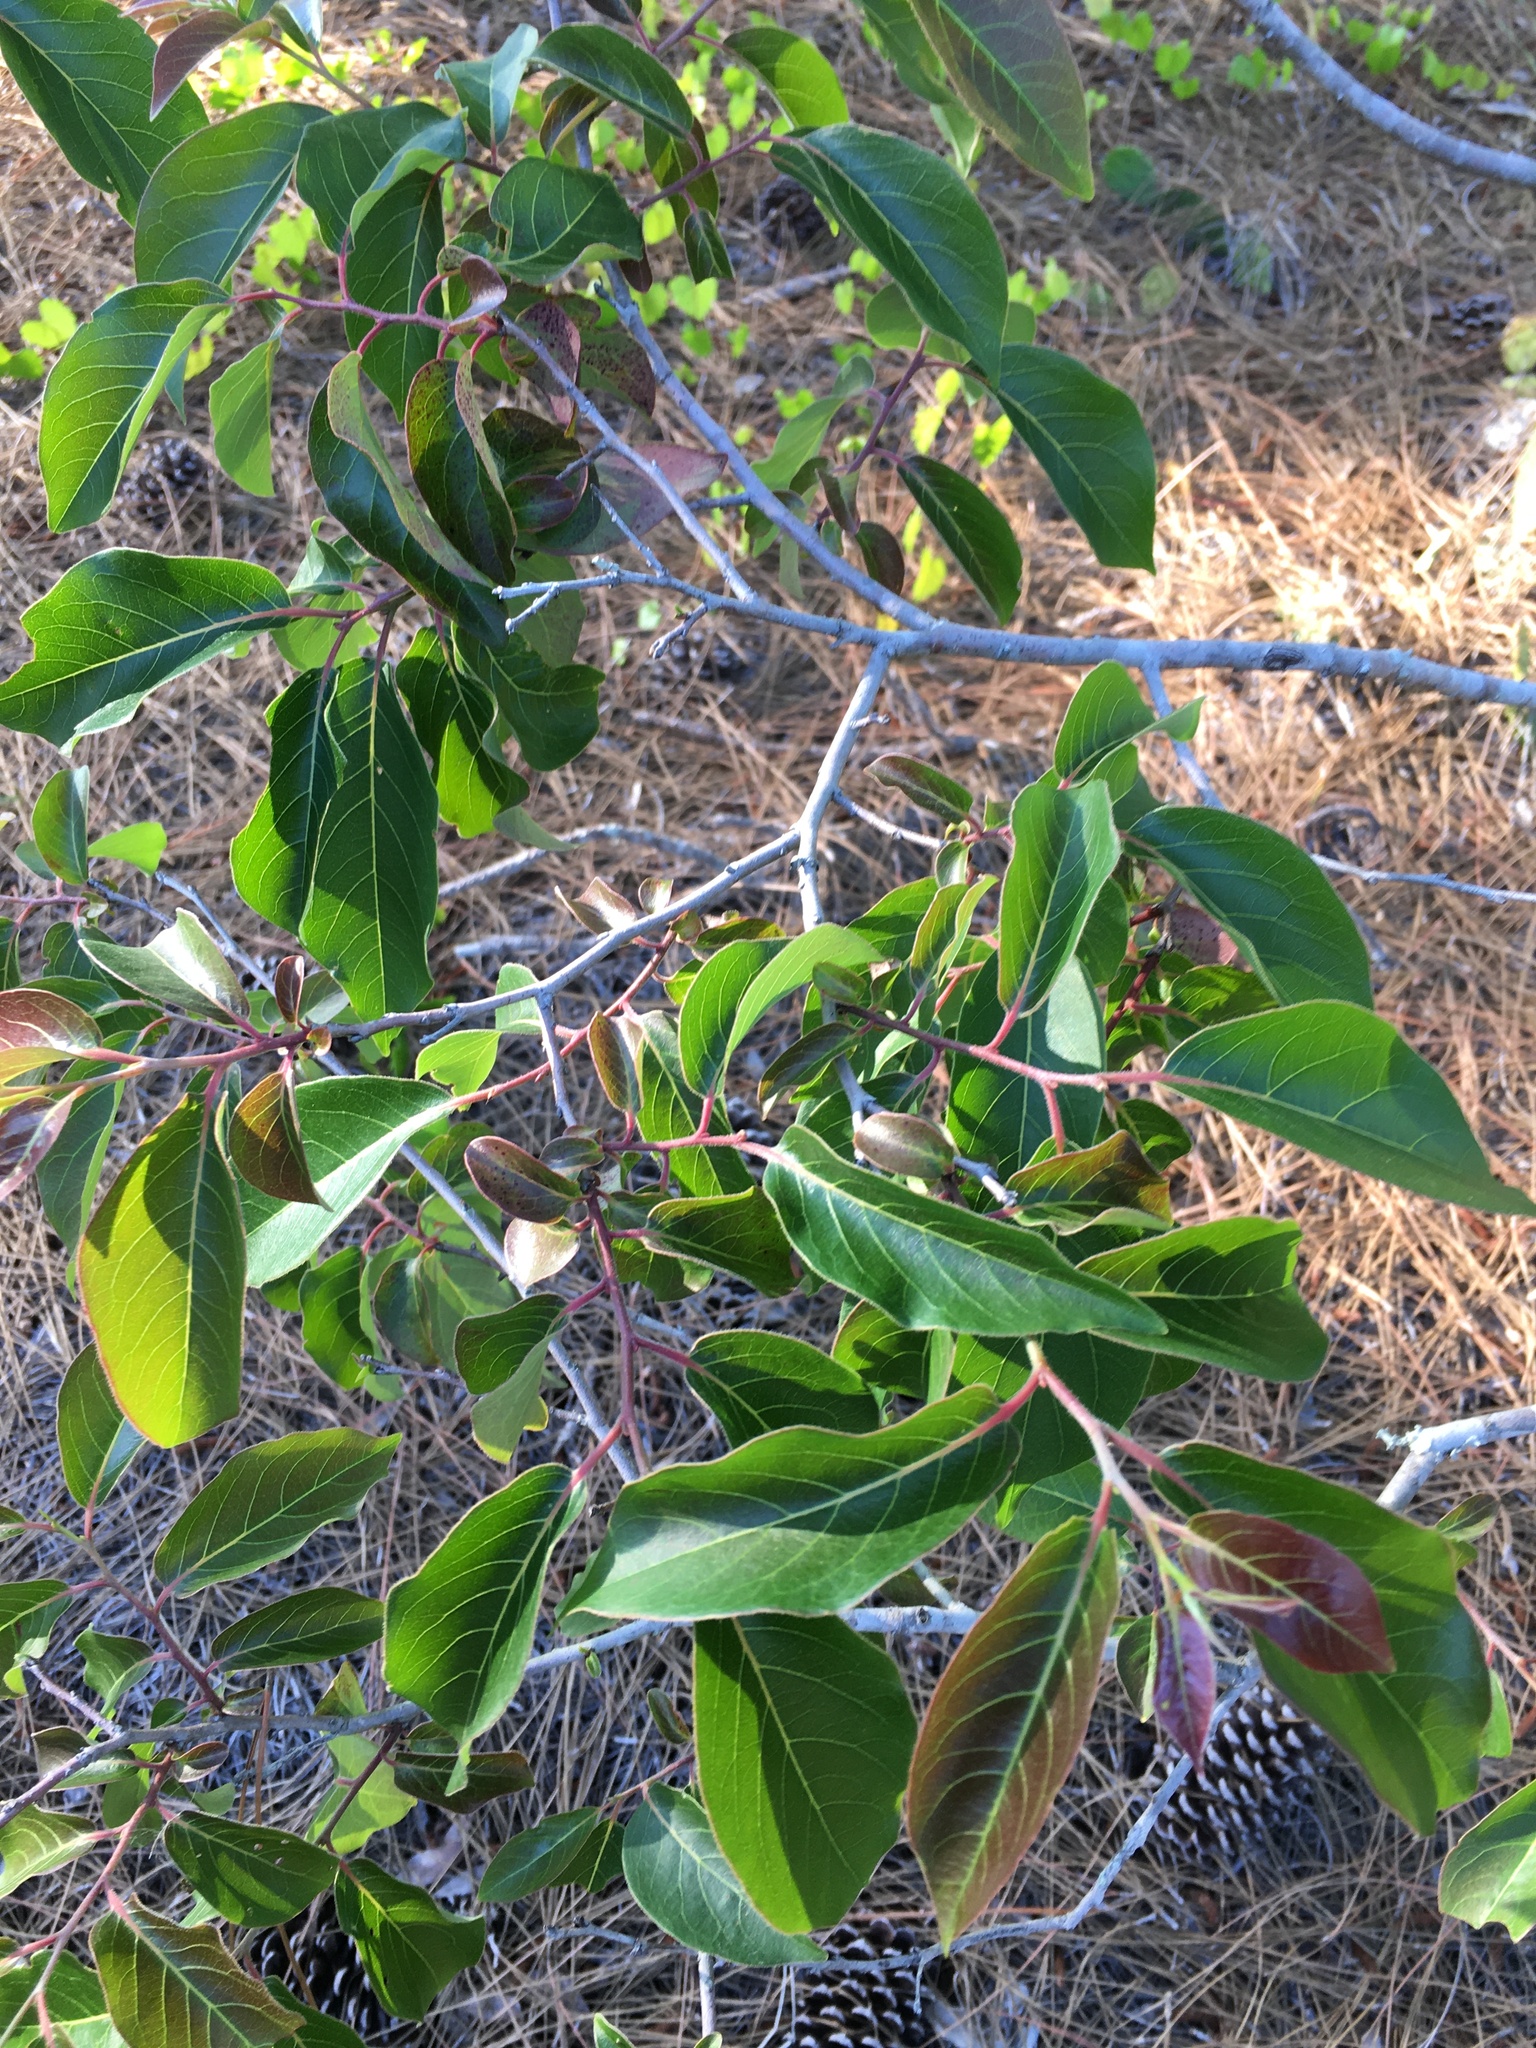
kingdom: Plantae
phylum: Tracheophyta
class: Magnoliopsida
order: Ericales
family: Ebenaceae
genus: Diospyros
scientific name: Diospyros virginiana
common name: Persimmon
